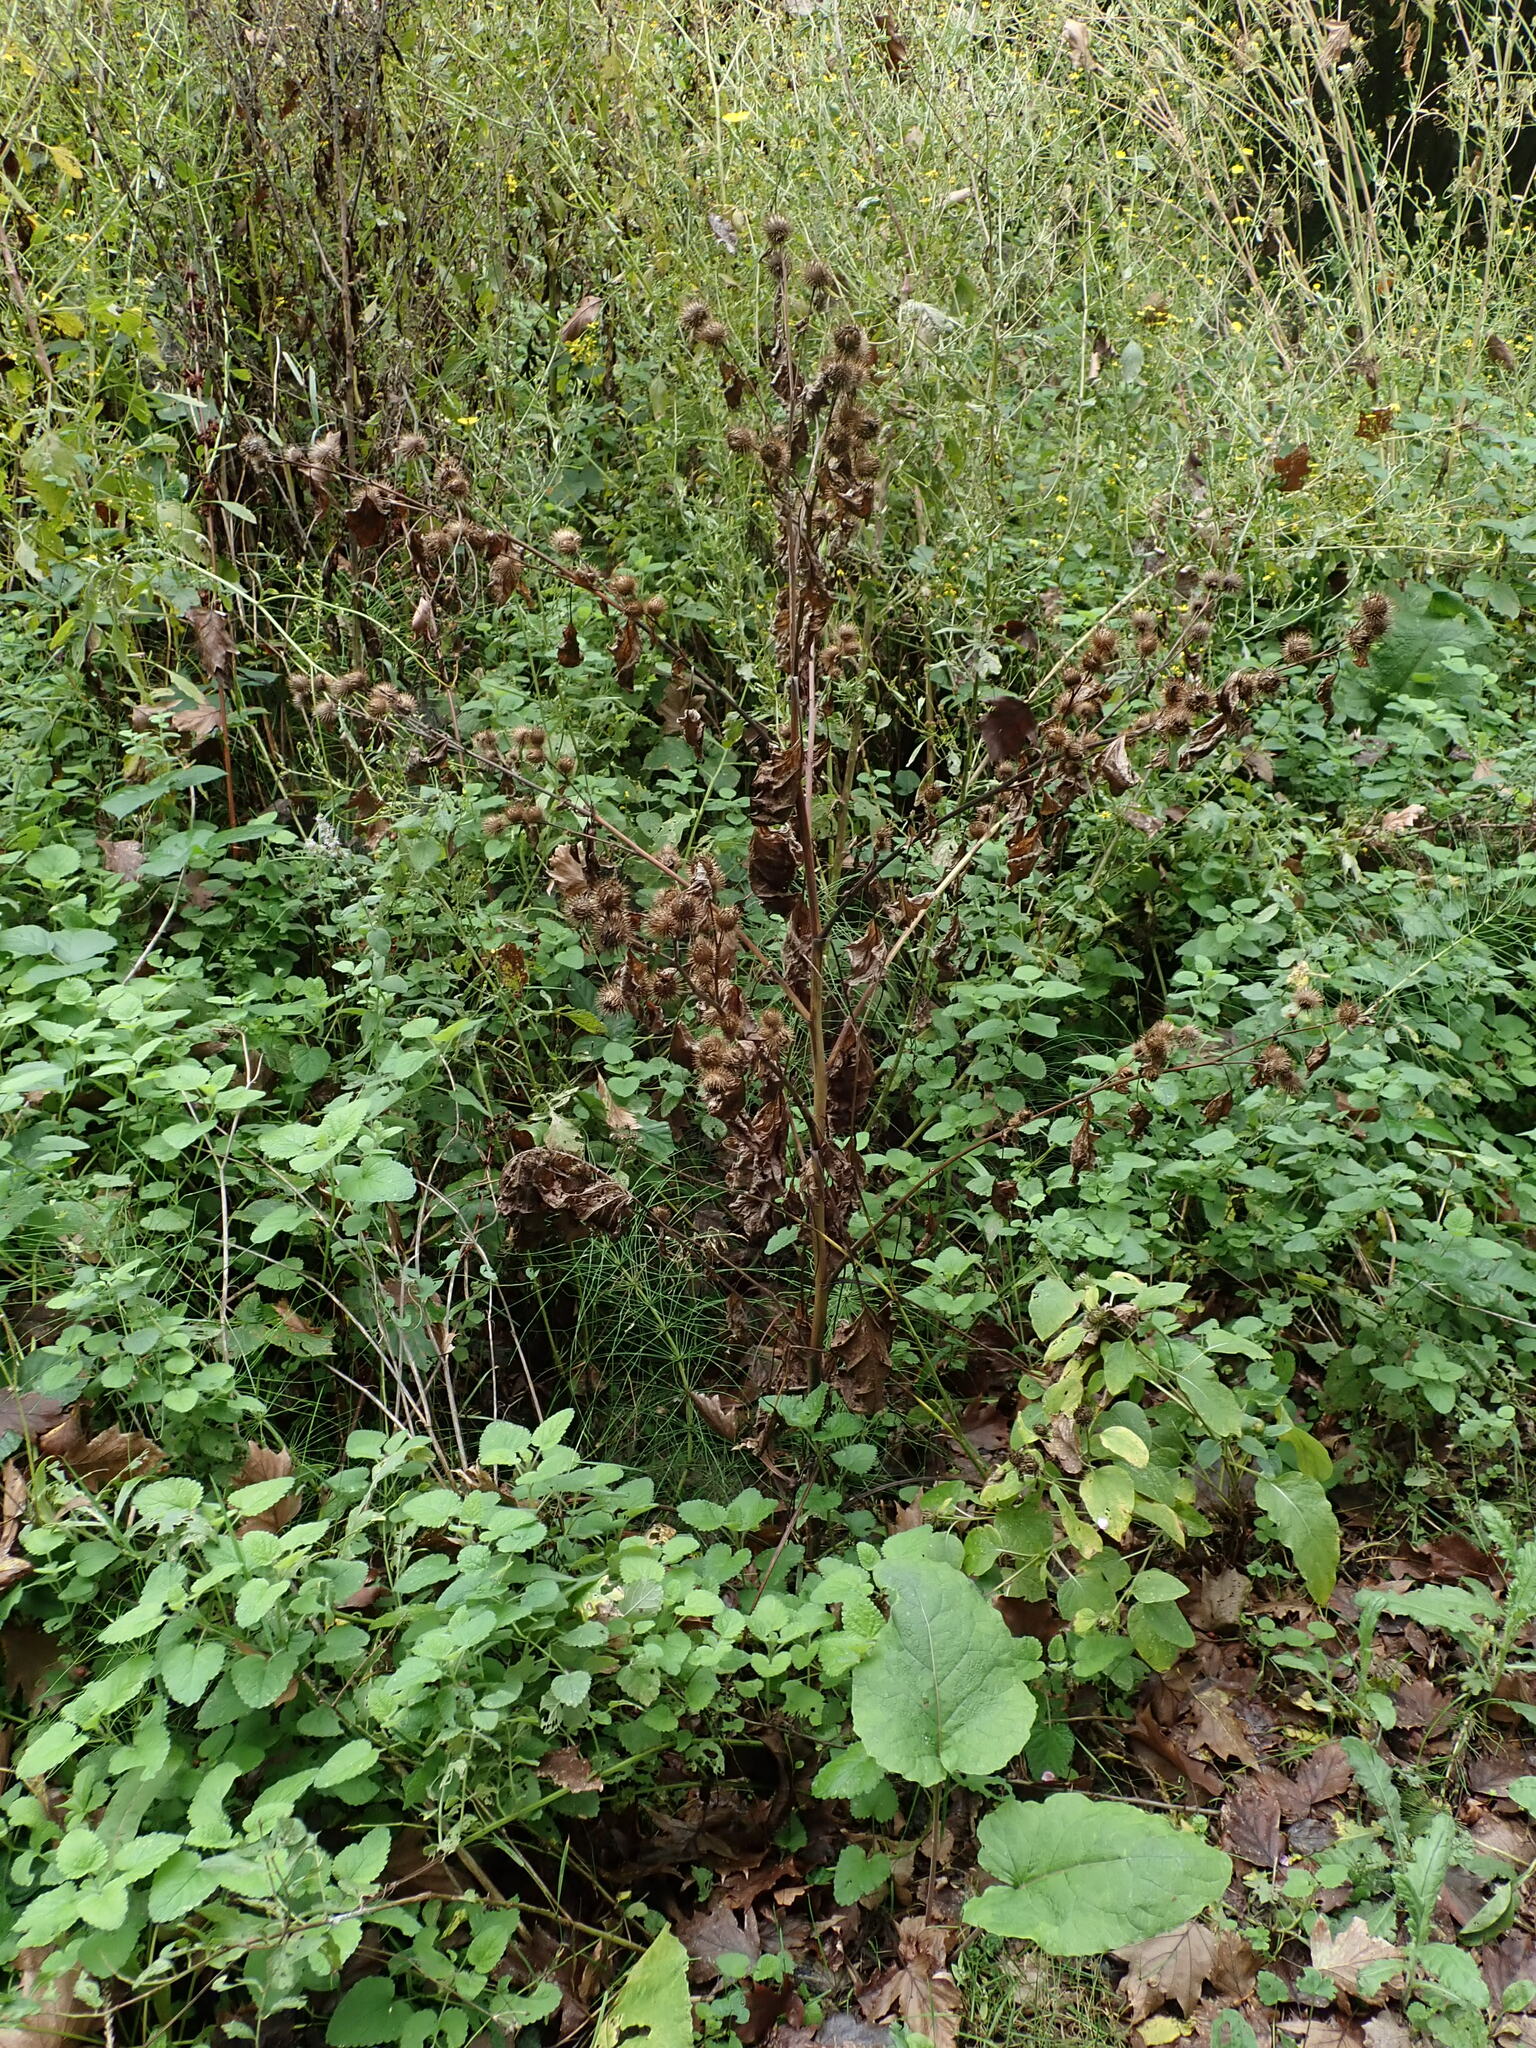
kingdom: Plantae
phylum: Tracheophyta
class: Magnoliopsida
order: Asterales
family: Asteraceae
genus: Arctium
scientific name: Arctium minus
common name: Lesser burdock
